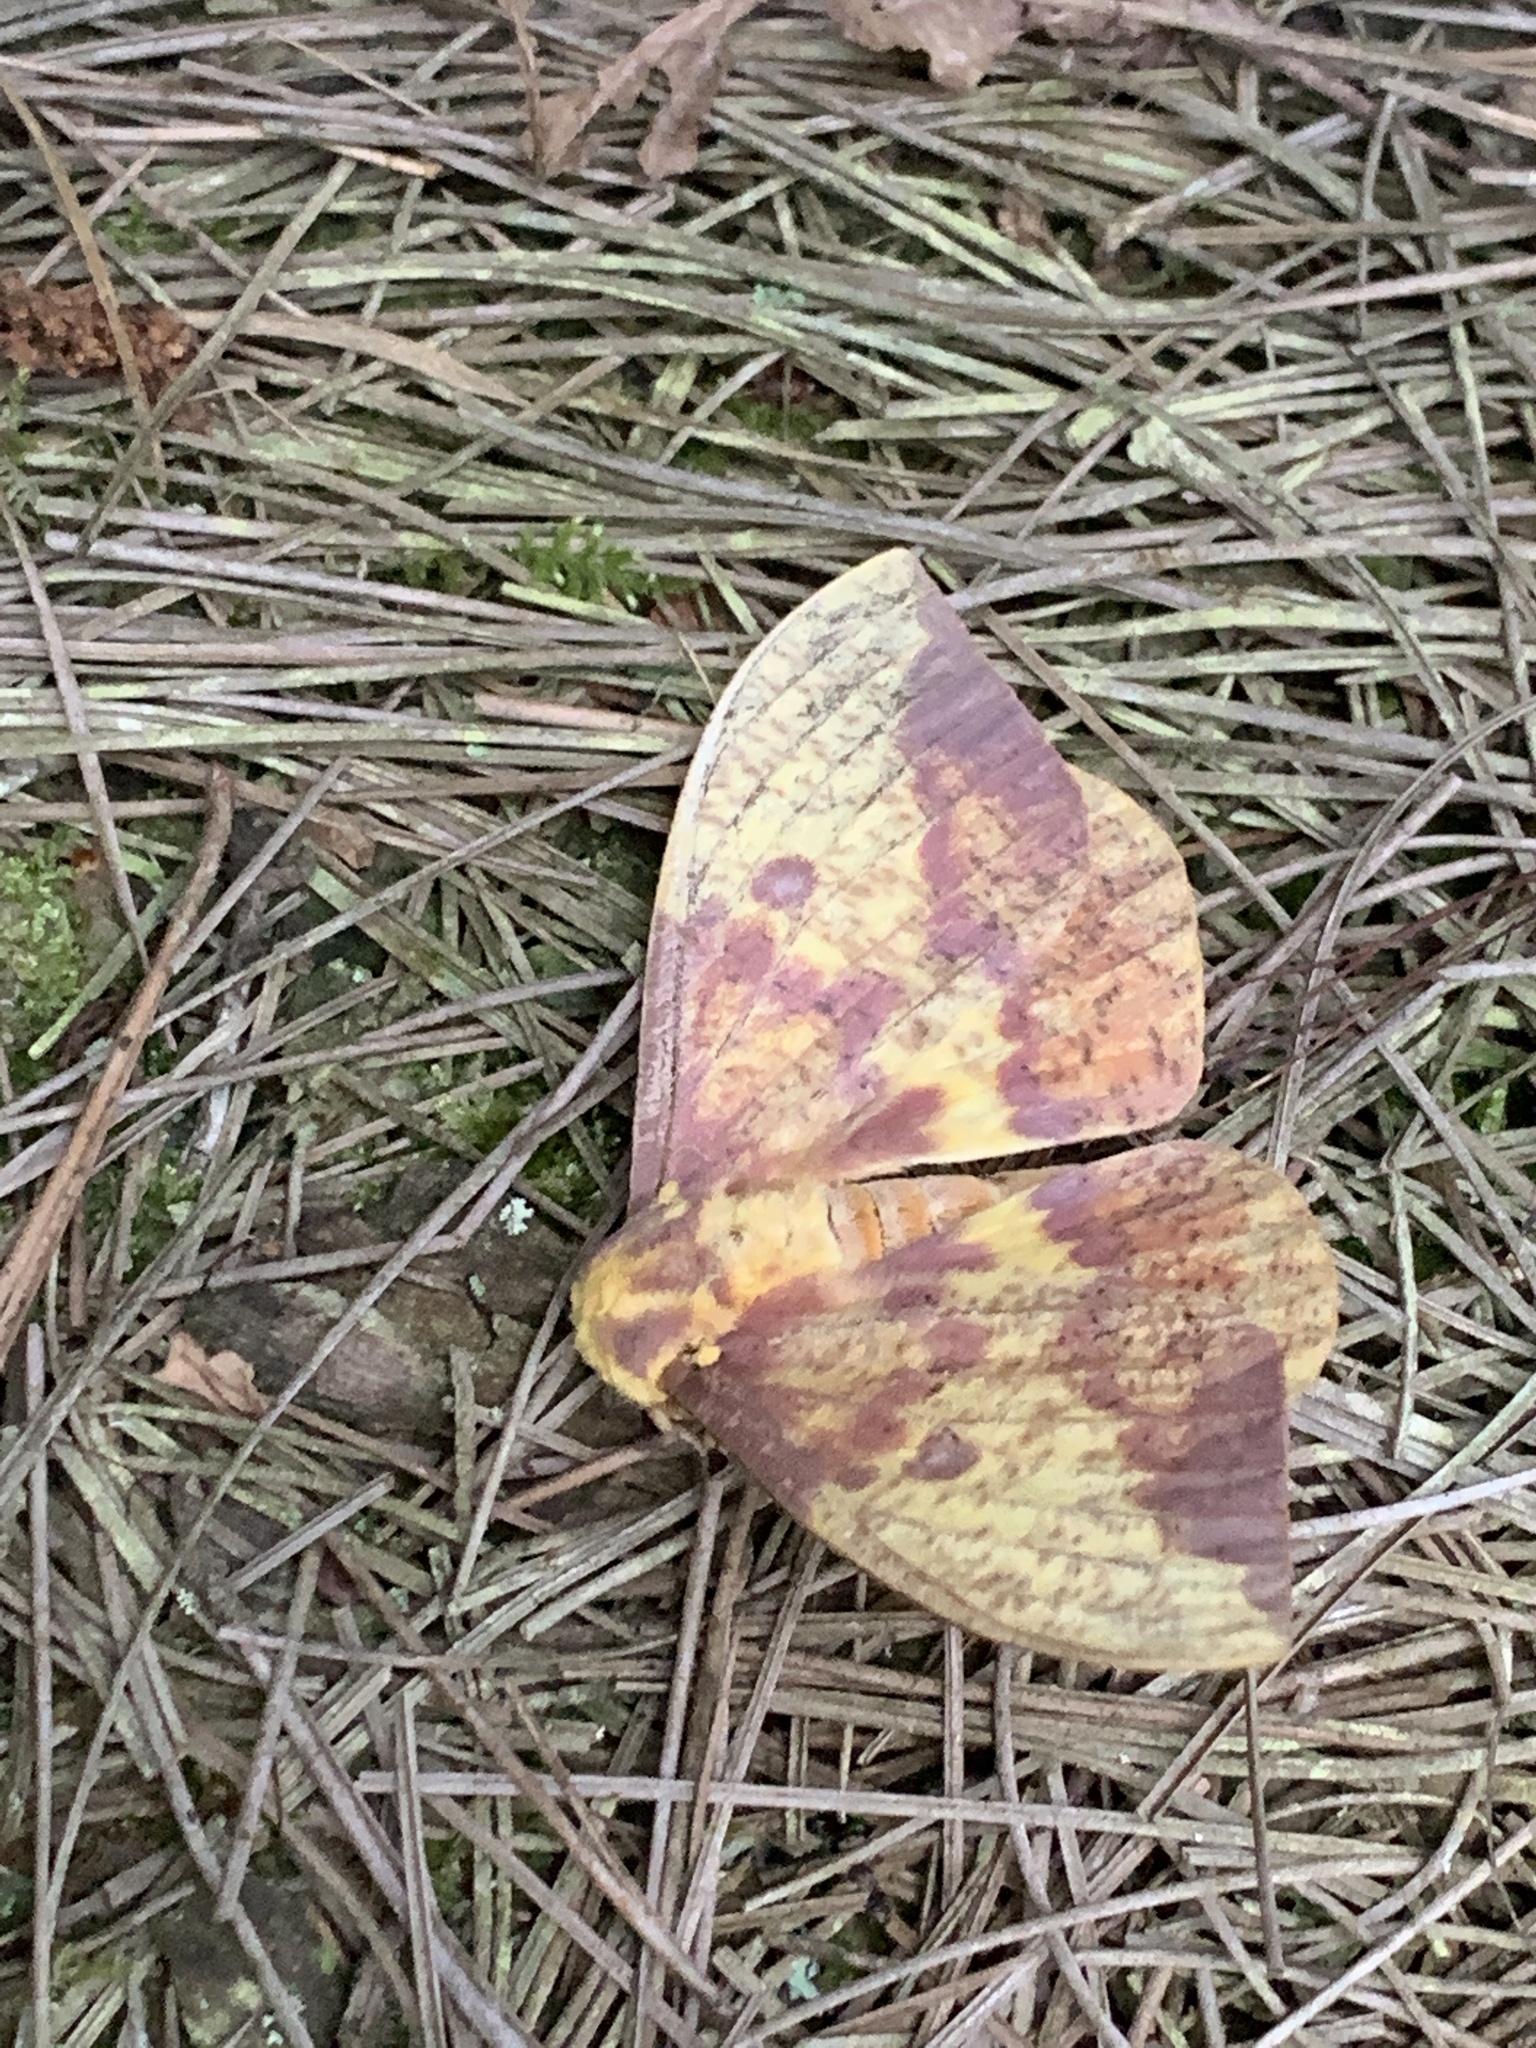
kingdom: Animalia
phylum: Arthropoda
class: Insecta
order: Lepidoptera
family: Saturniidae
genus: Eacles
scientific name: Eacles imperialis
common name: Imperial moth
